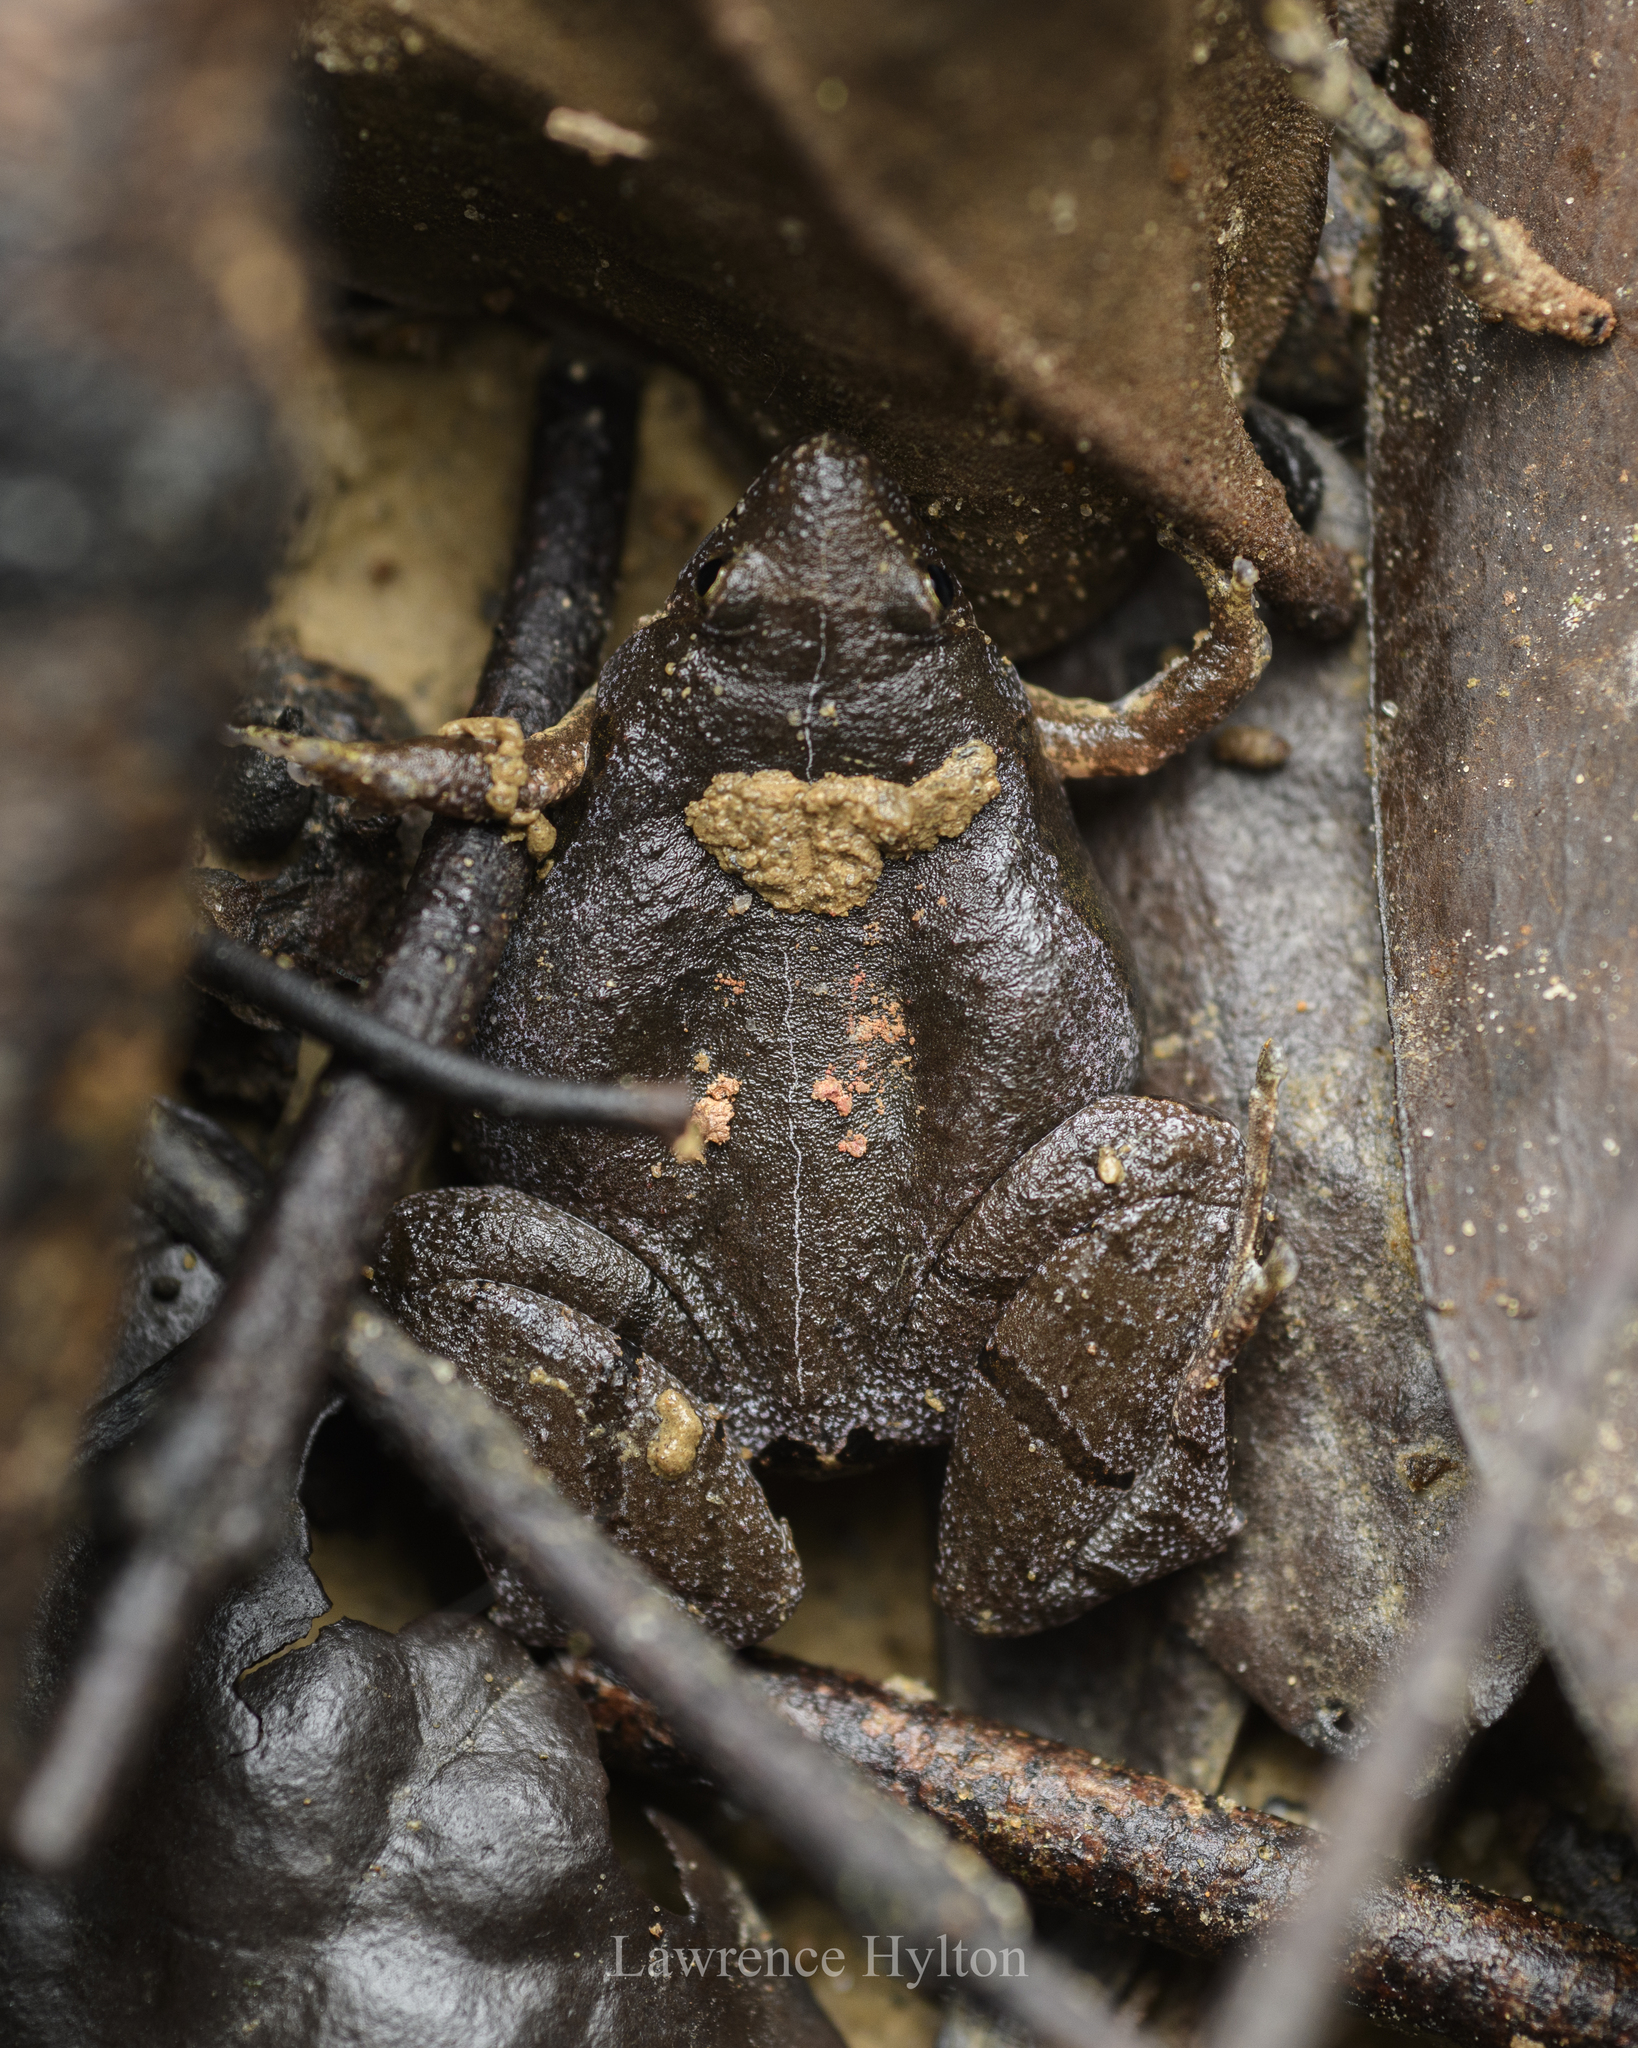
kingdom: Animalia
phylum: Chordata
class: Amphibia
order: Anura
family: Microhylidae
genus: Microhyla
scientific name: Microhyla berdmorei
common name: Berdmore’s narrow-mouthed frog,large pygmy frog
